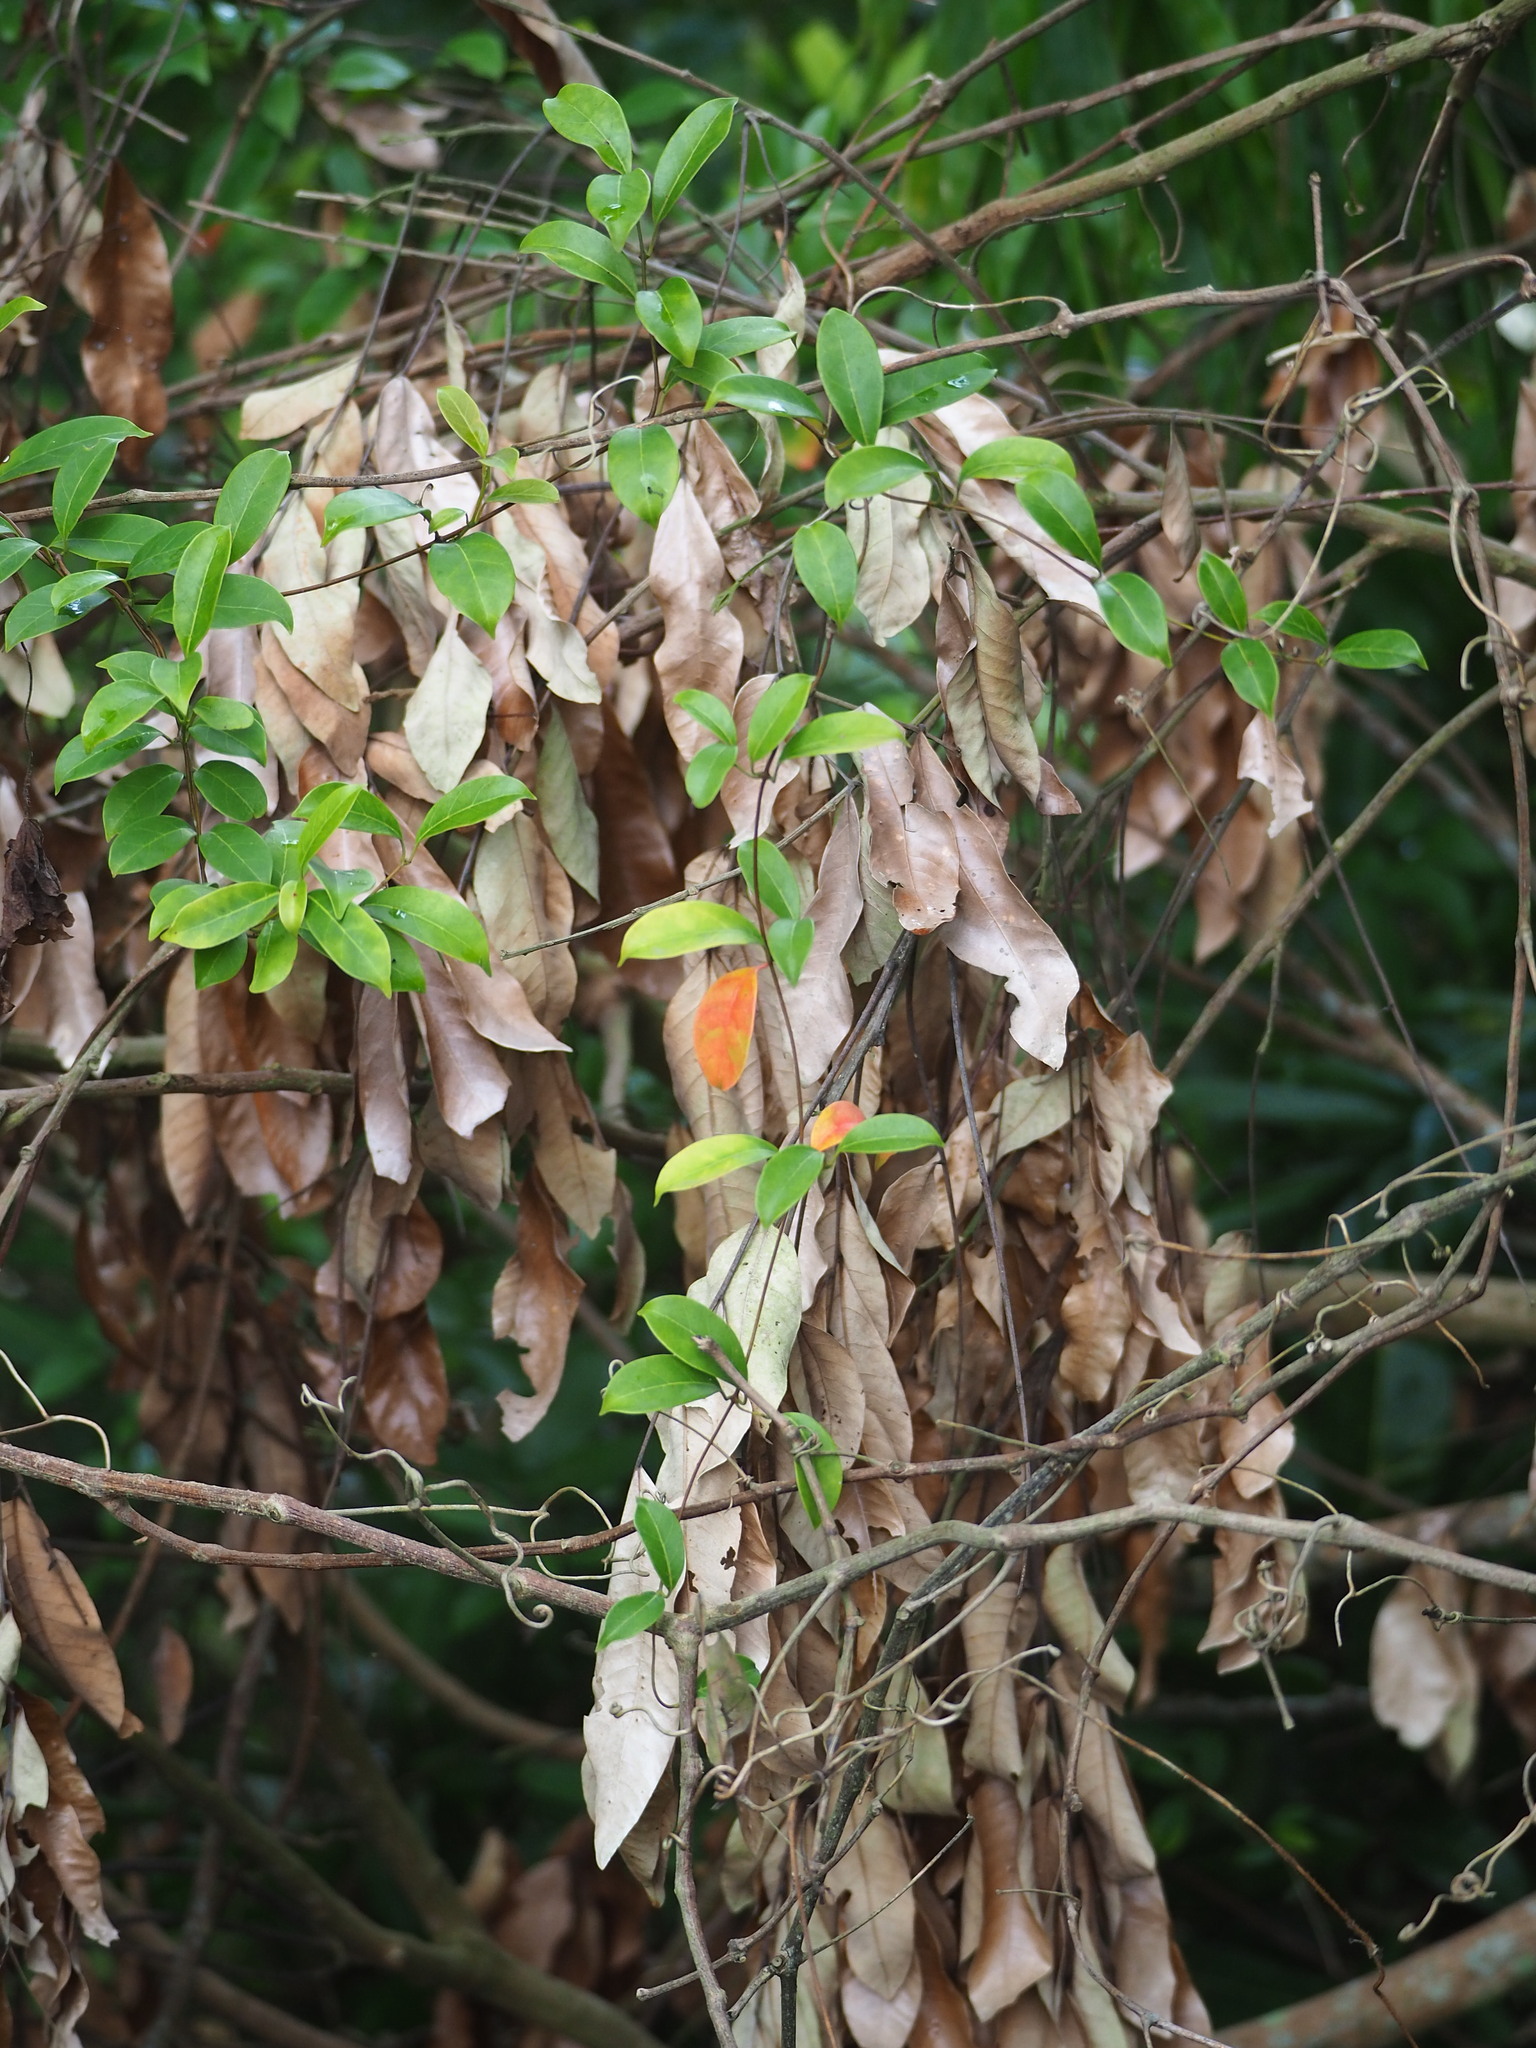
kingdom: Plantae
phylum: Tracheophyta
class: Magnoliopsida
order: Gentianales
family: Apocynaceae
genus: Urceola
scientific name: Urceola rosea
